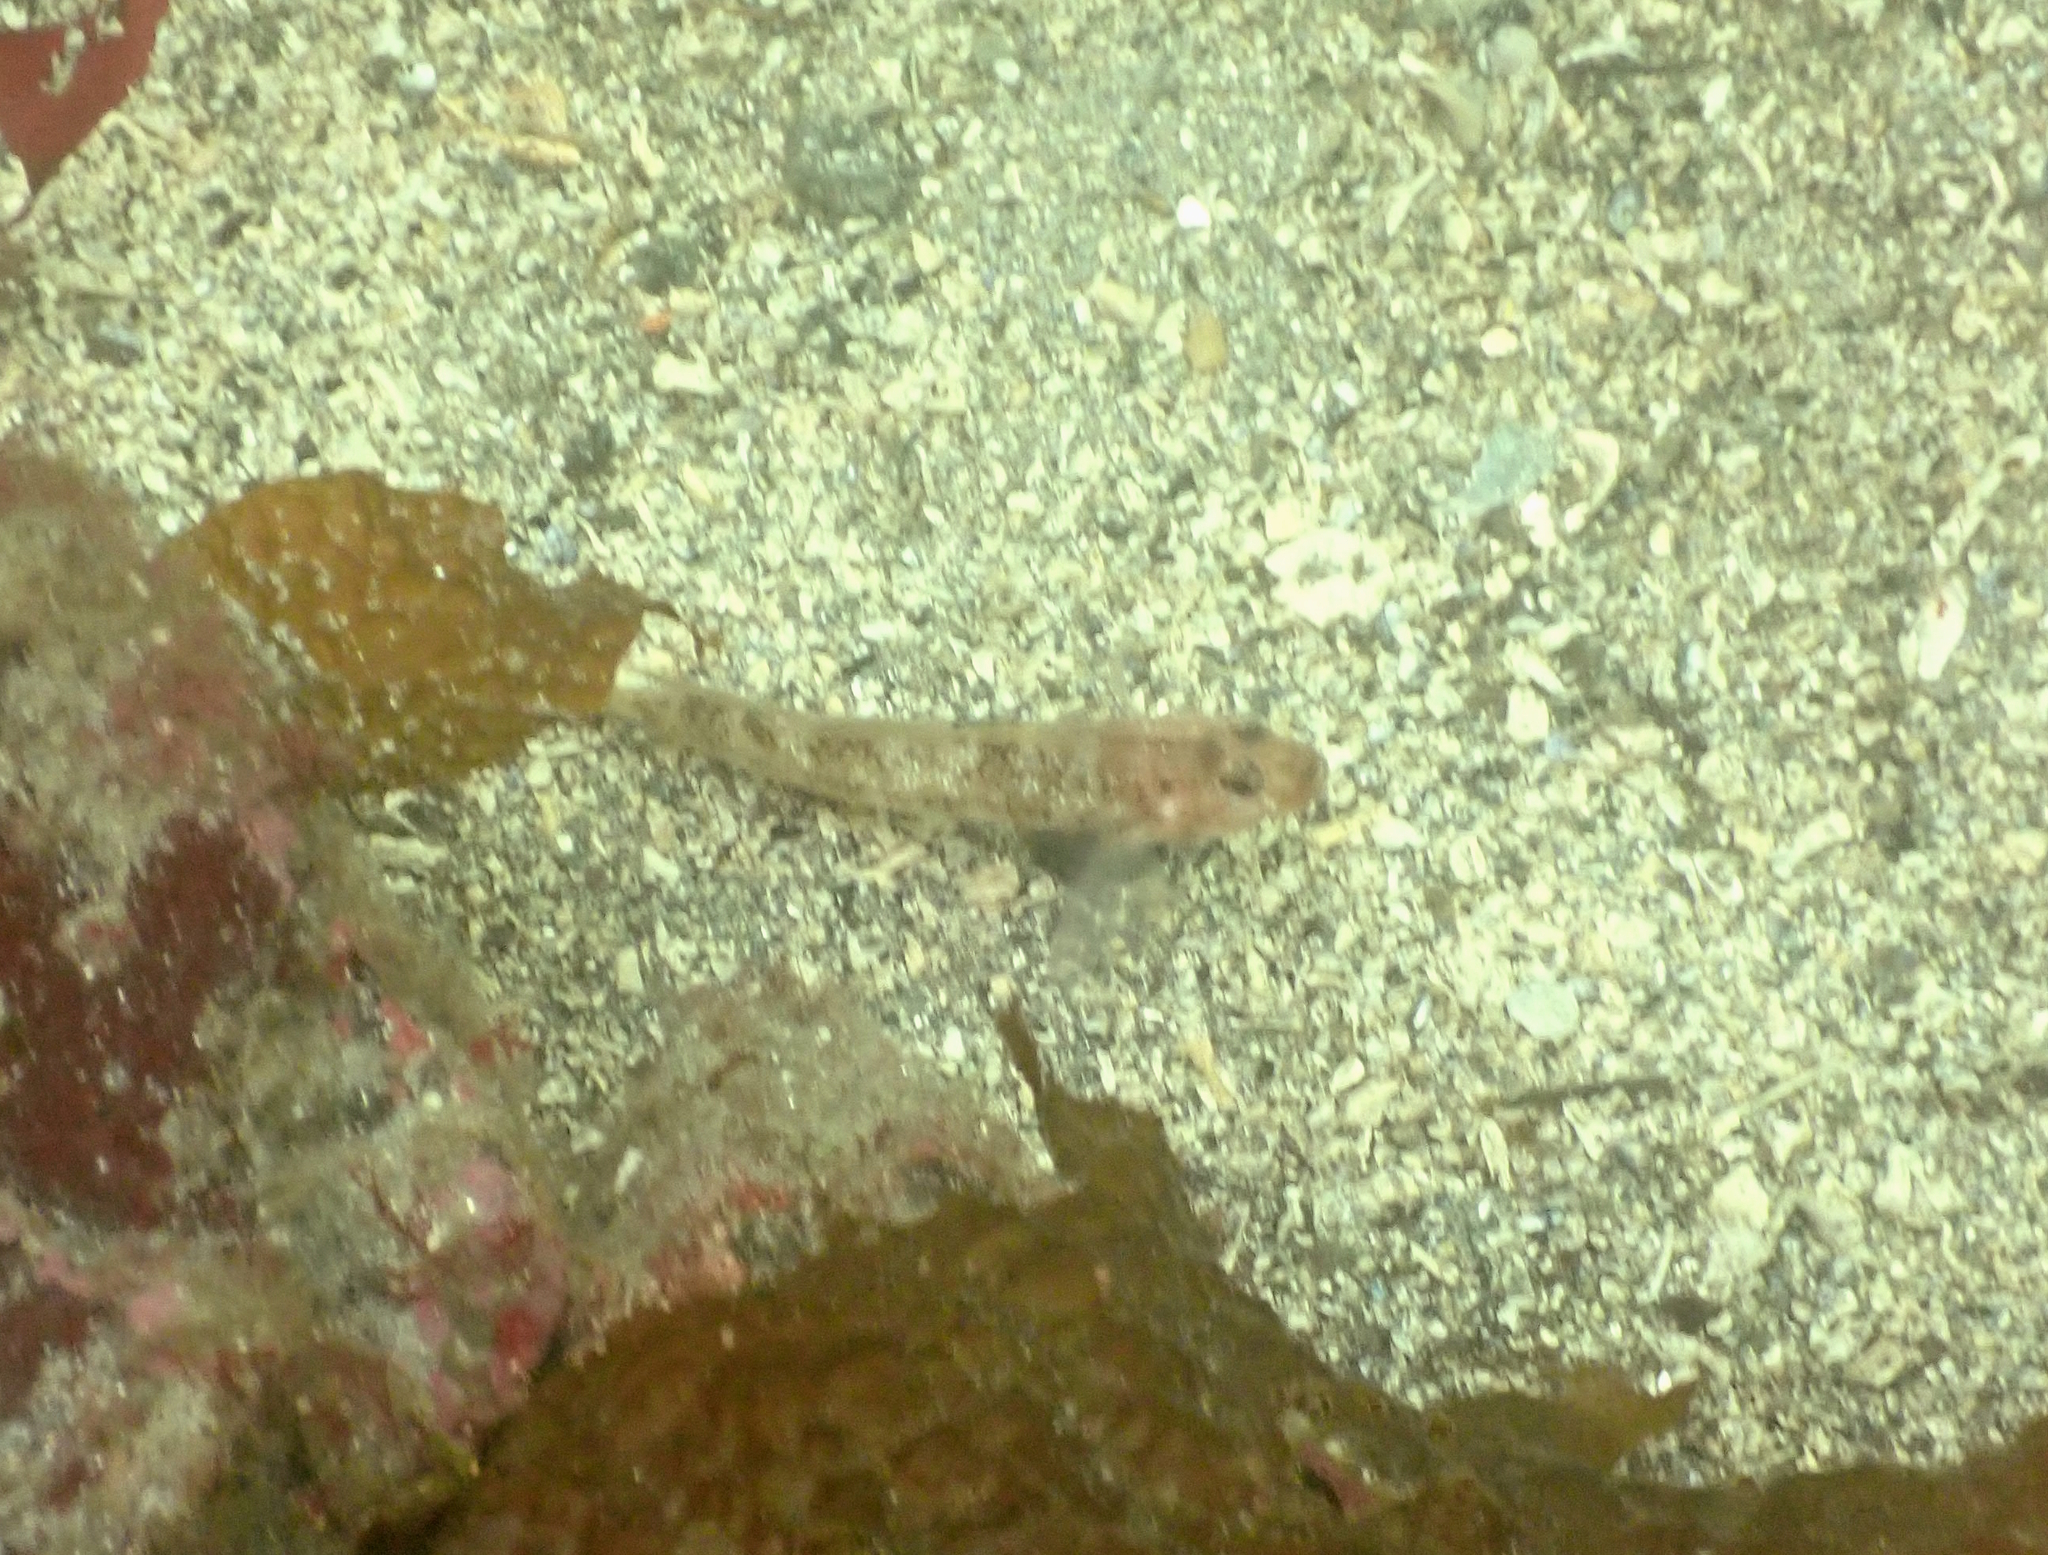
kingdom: Animalia
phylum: Chordata
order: Perciformes
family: Gobiidae
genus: Rhinogobiops
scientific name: Rhinogobiops nicholsii
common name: Blackeye goby
